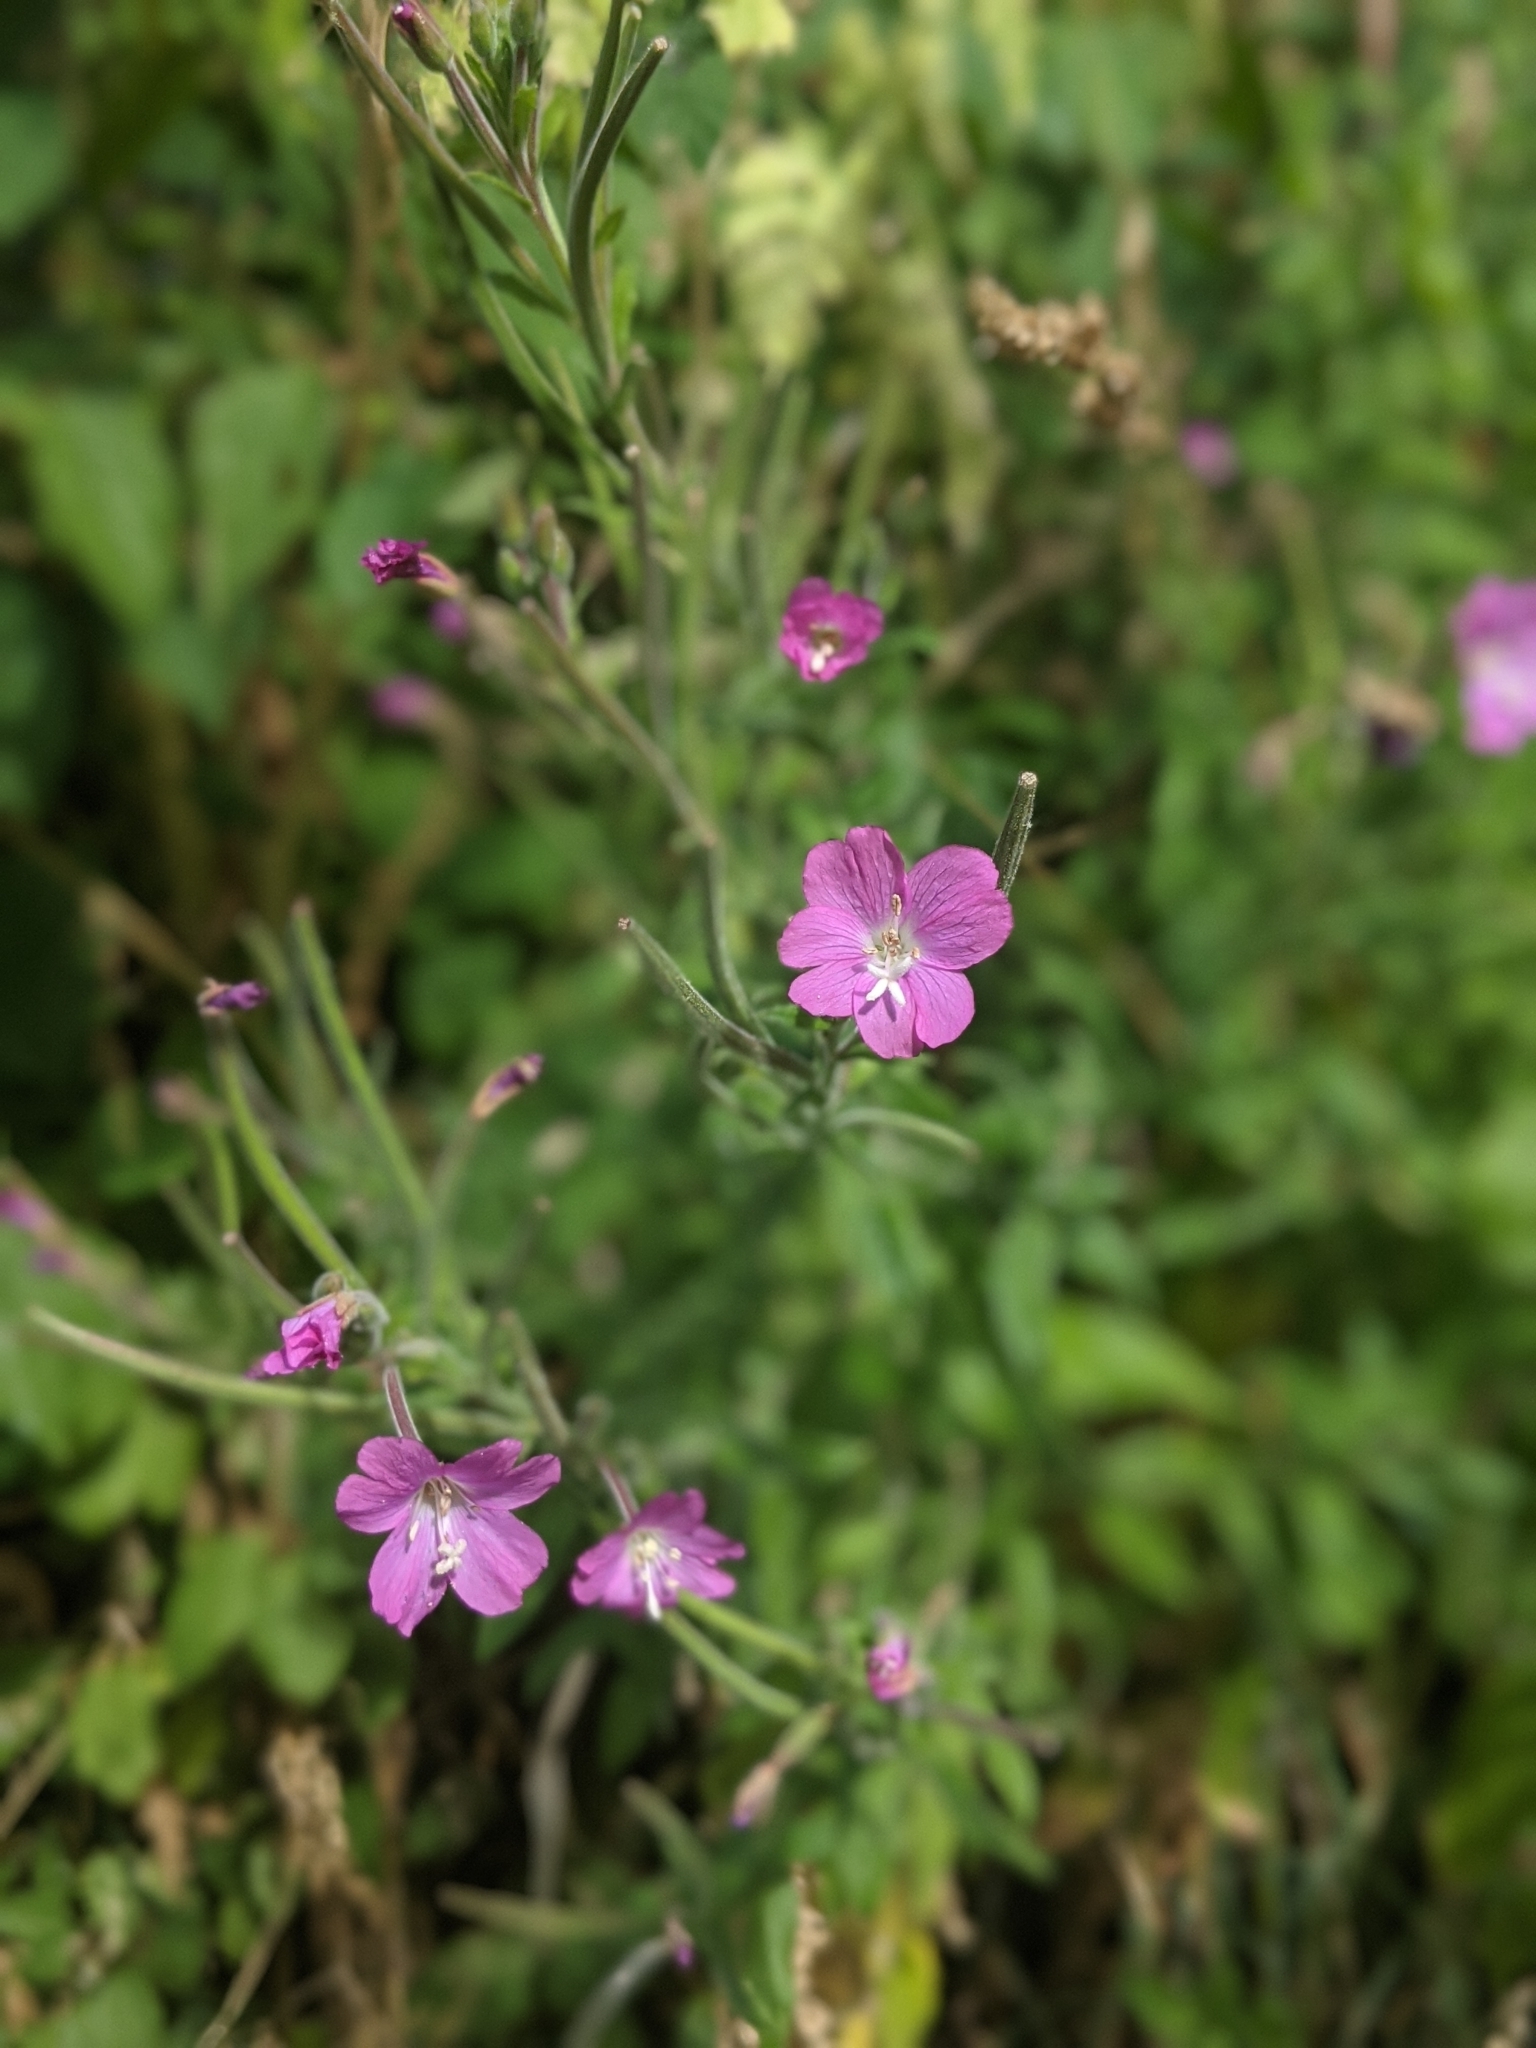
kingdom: Plantae
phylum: Tracheophyta
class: Magnoliopsida
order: Myrtales
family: Onagraceae
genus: Epilobium
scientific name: Epilobium hirsutum
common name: Great willowherb
